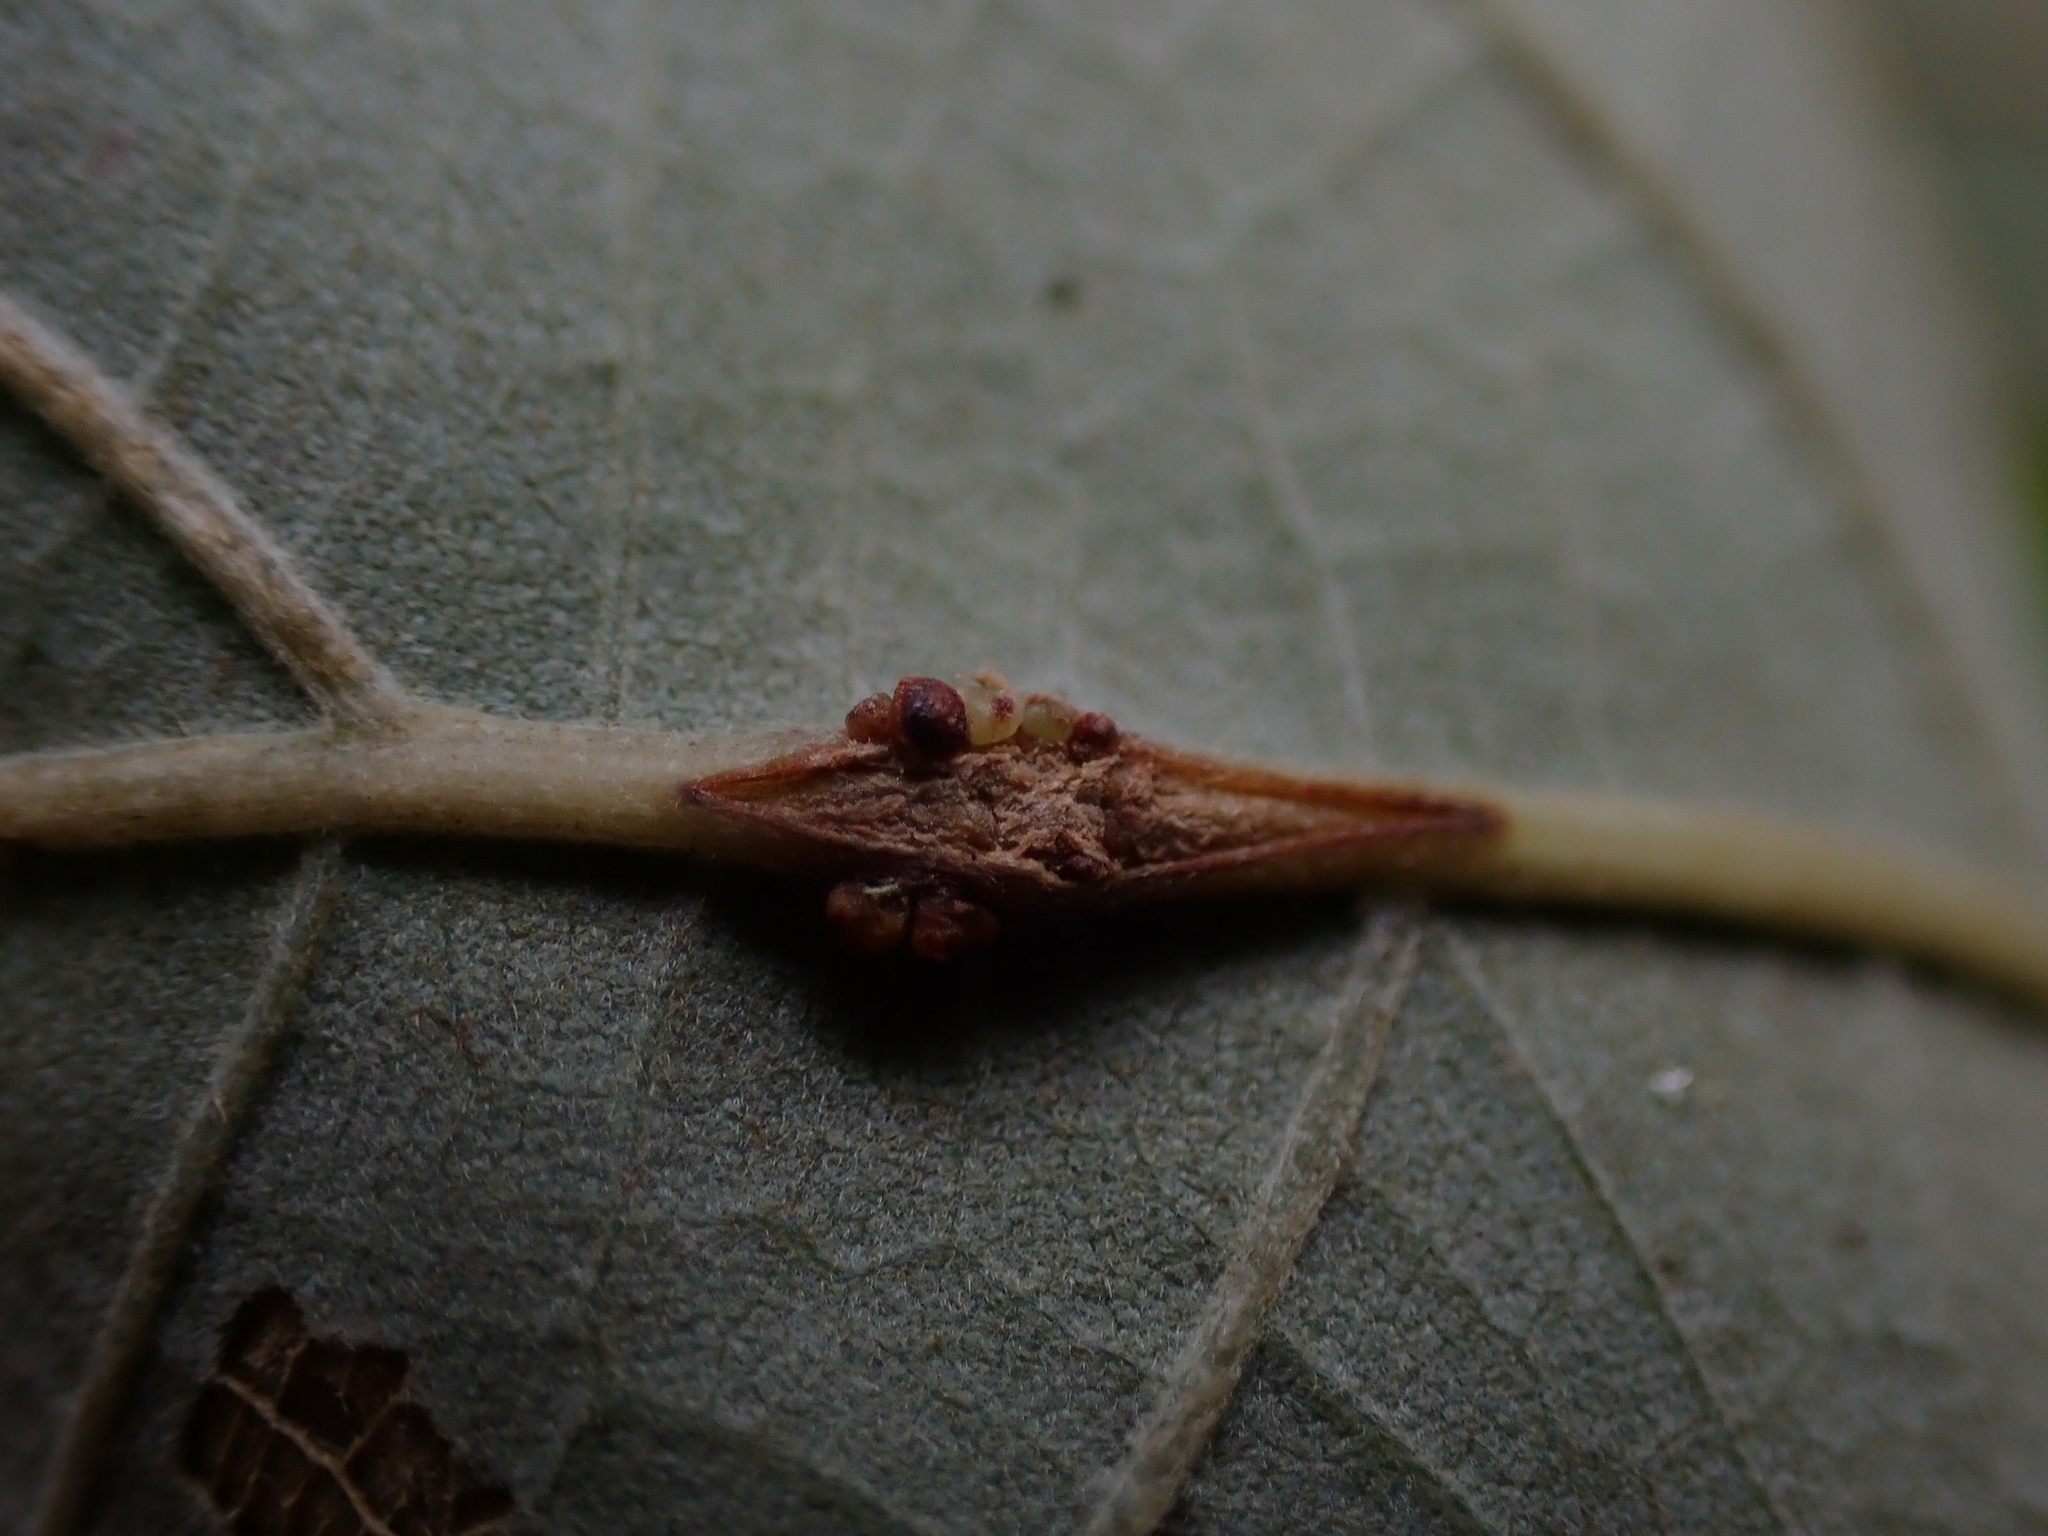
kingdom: Animalia
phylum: Arthropoda
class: Insecta
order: Hymenoptera
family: Cynipidae
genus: Andricus
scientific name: Andricus
